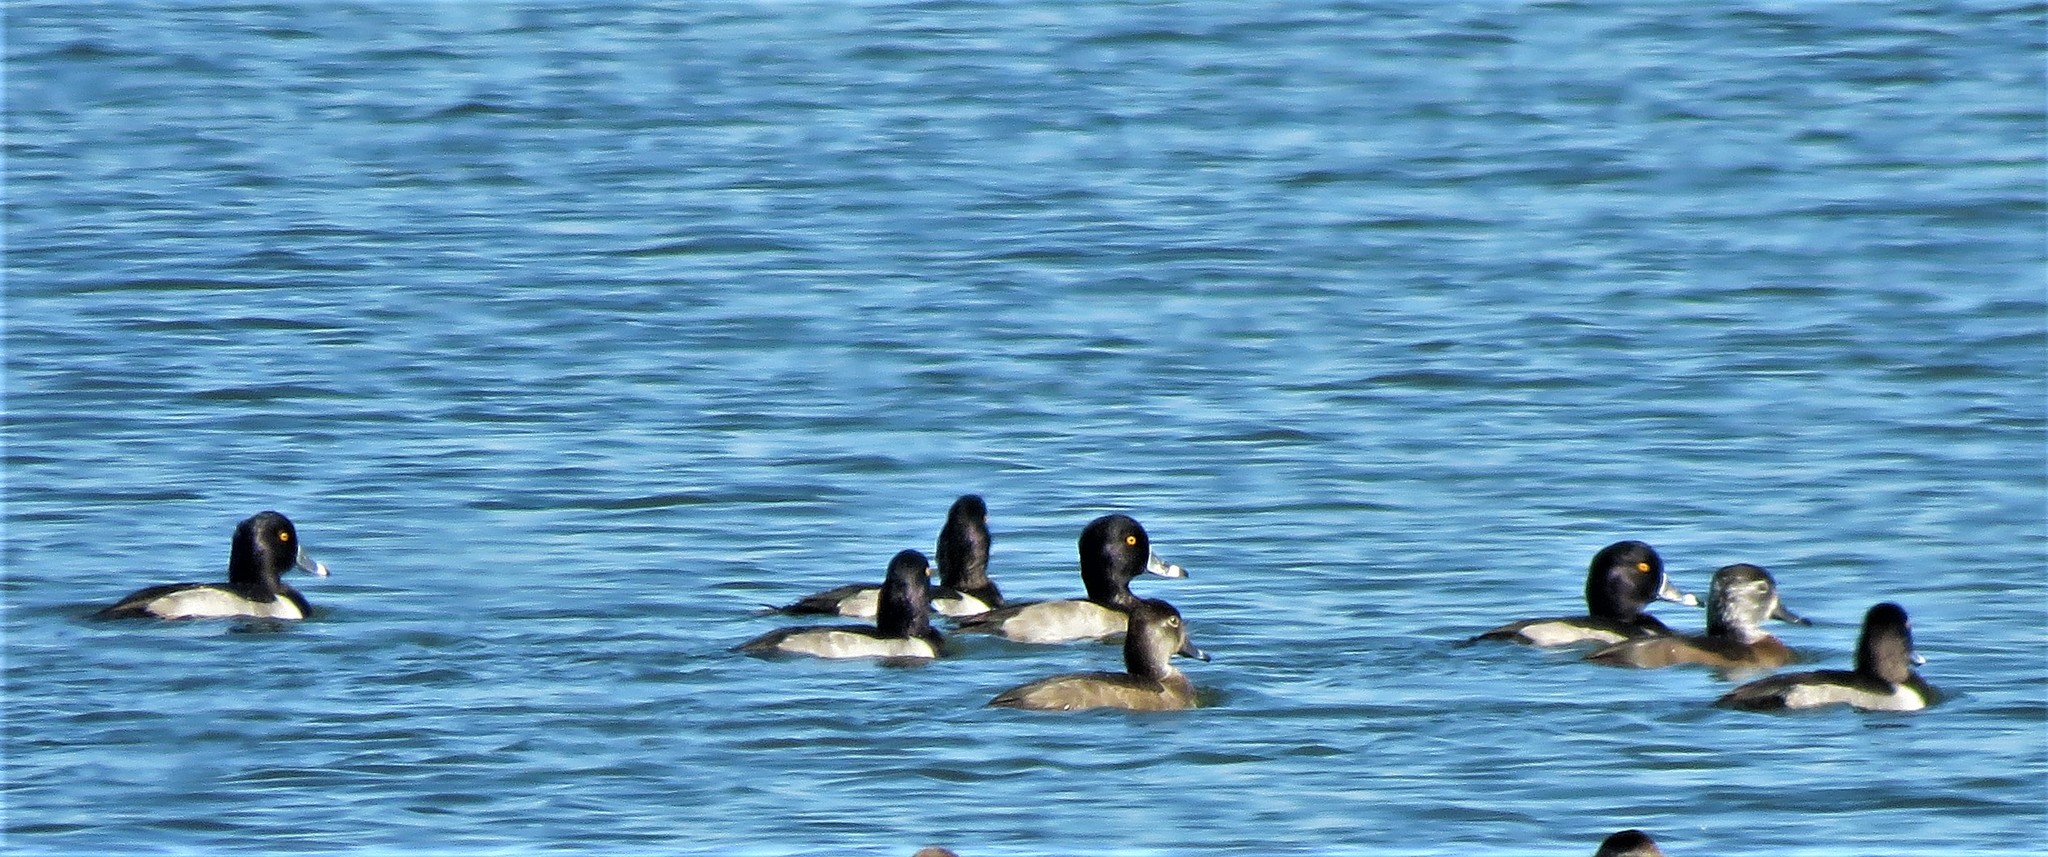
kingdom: Animalia
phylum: Chordata
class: Aves
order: Anseriformes
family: Anatidae
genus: Aythya
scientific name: Aythya collaris
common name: Ring-necked duck
